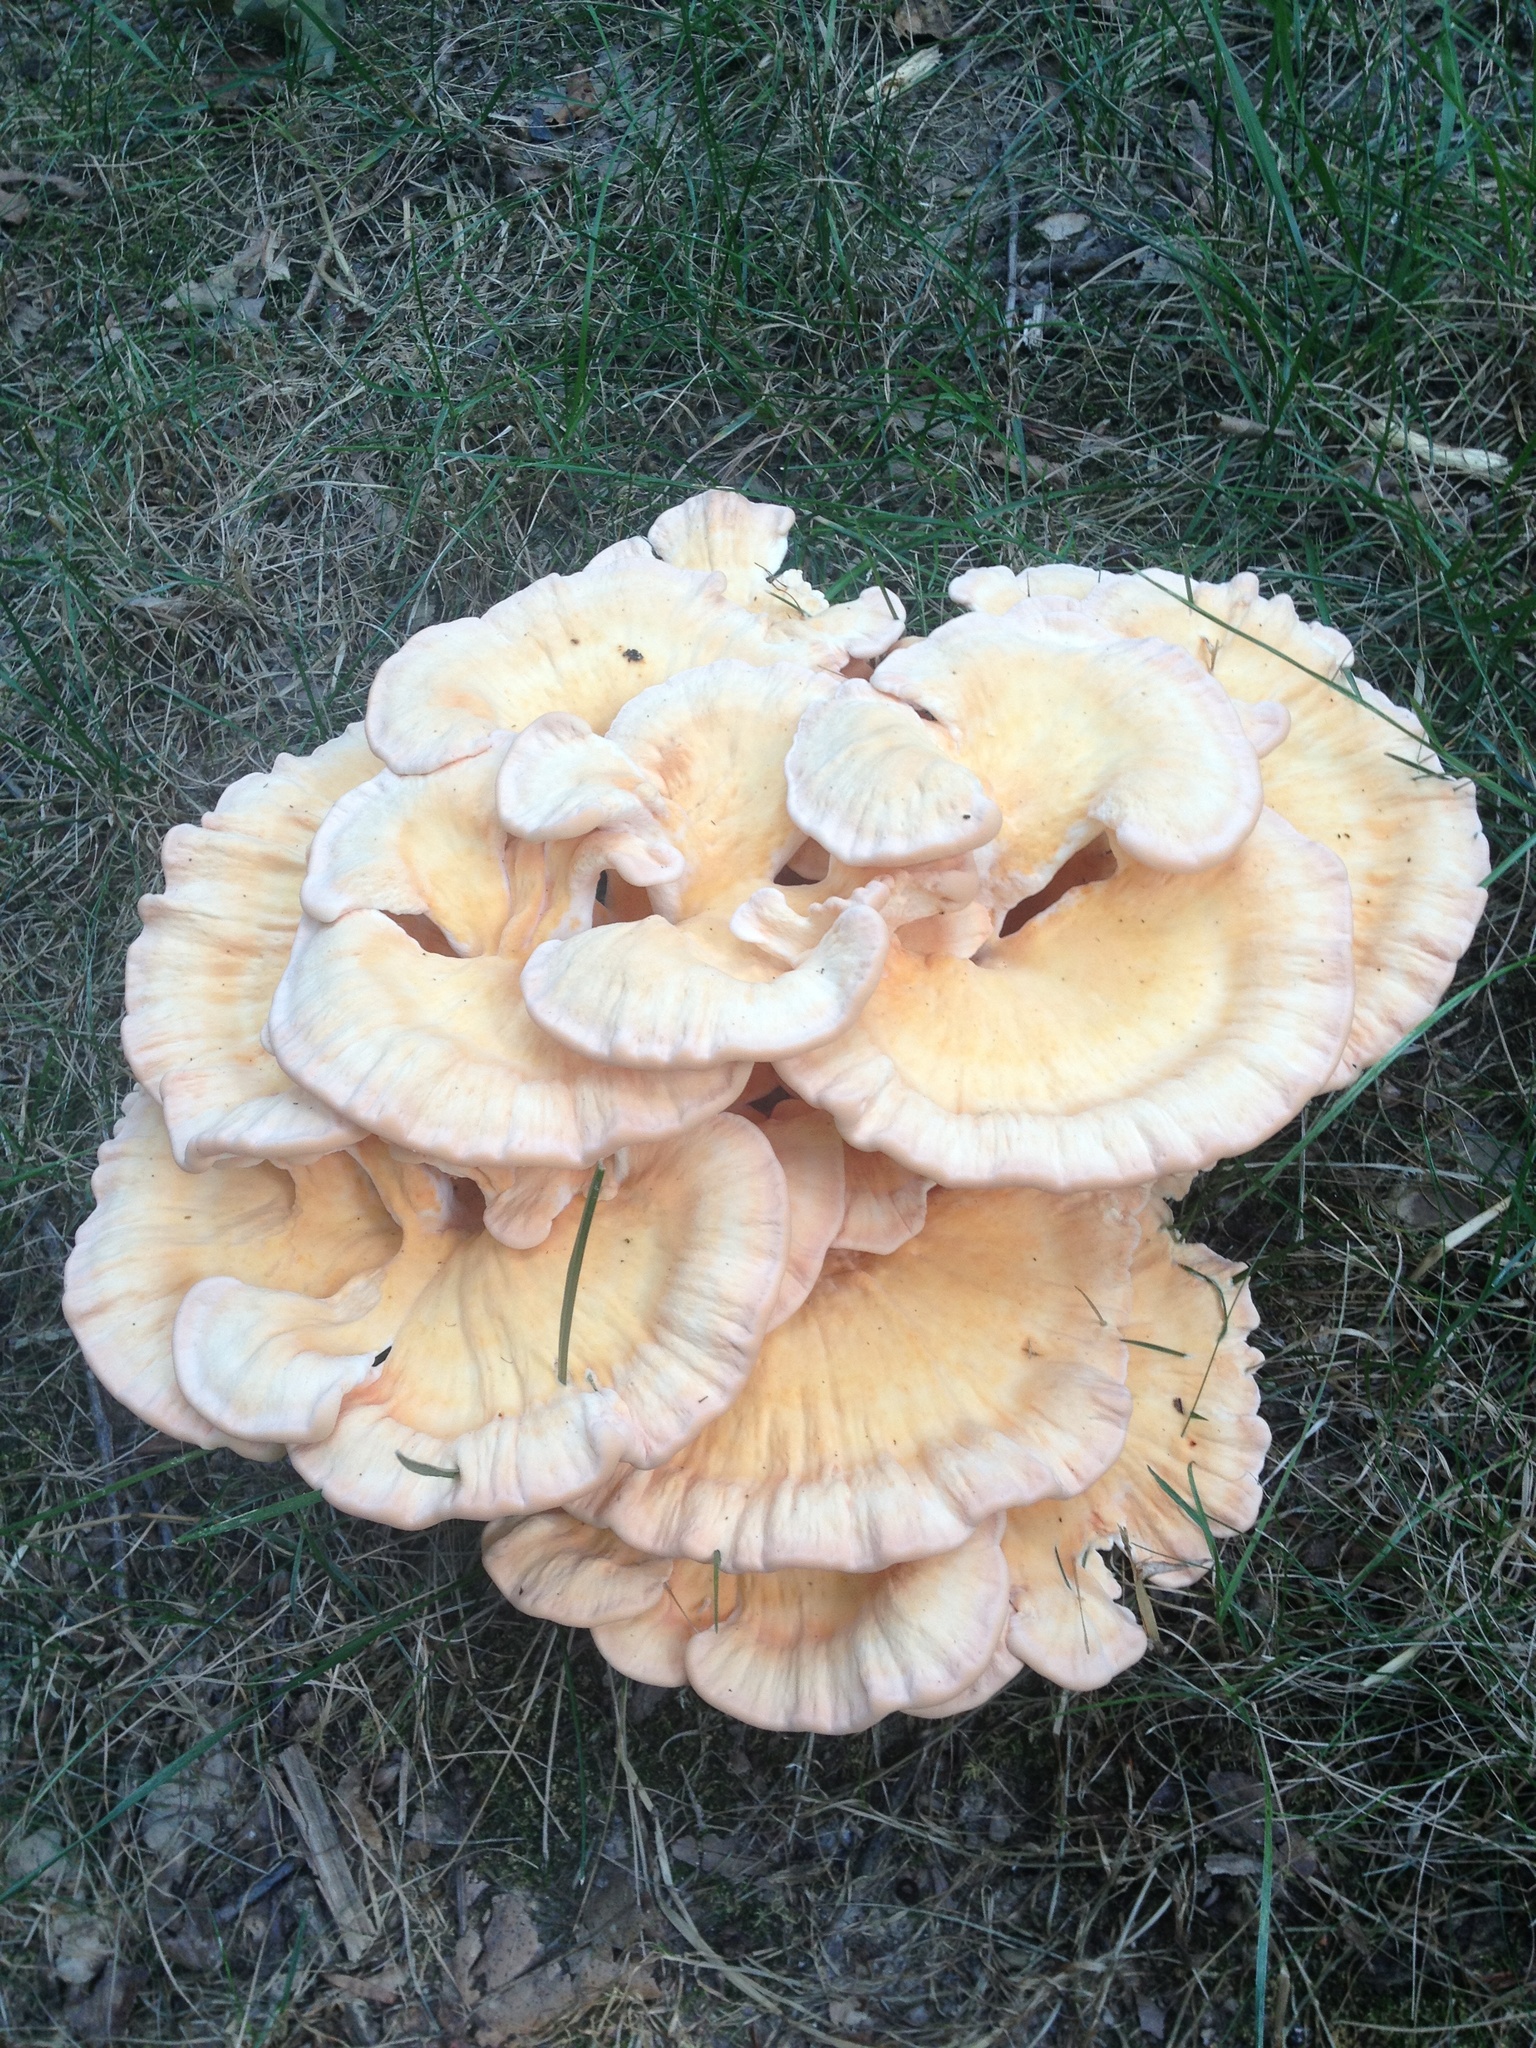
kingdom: Fungi
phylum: Basidiomycota
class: Agaricomycetes
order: Polyporales
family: Laetiporaceae
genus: Laetiporus
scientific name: Laetiporus sulphureus
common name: Chicken of the woods
